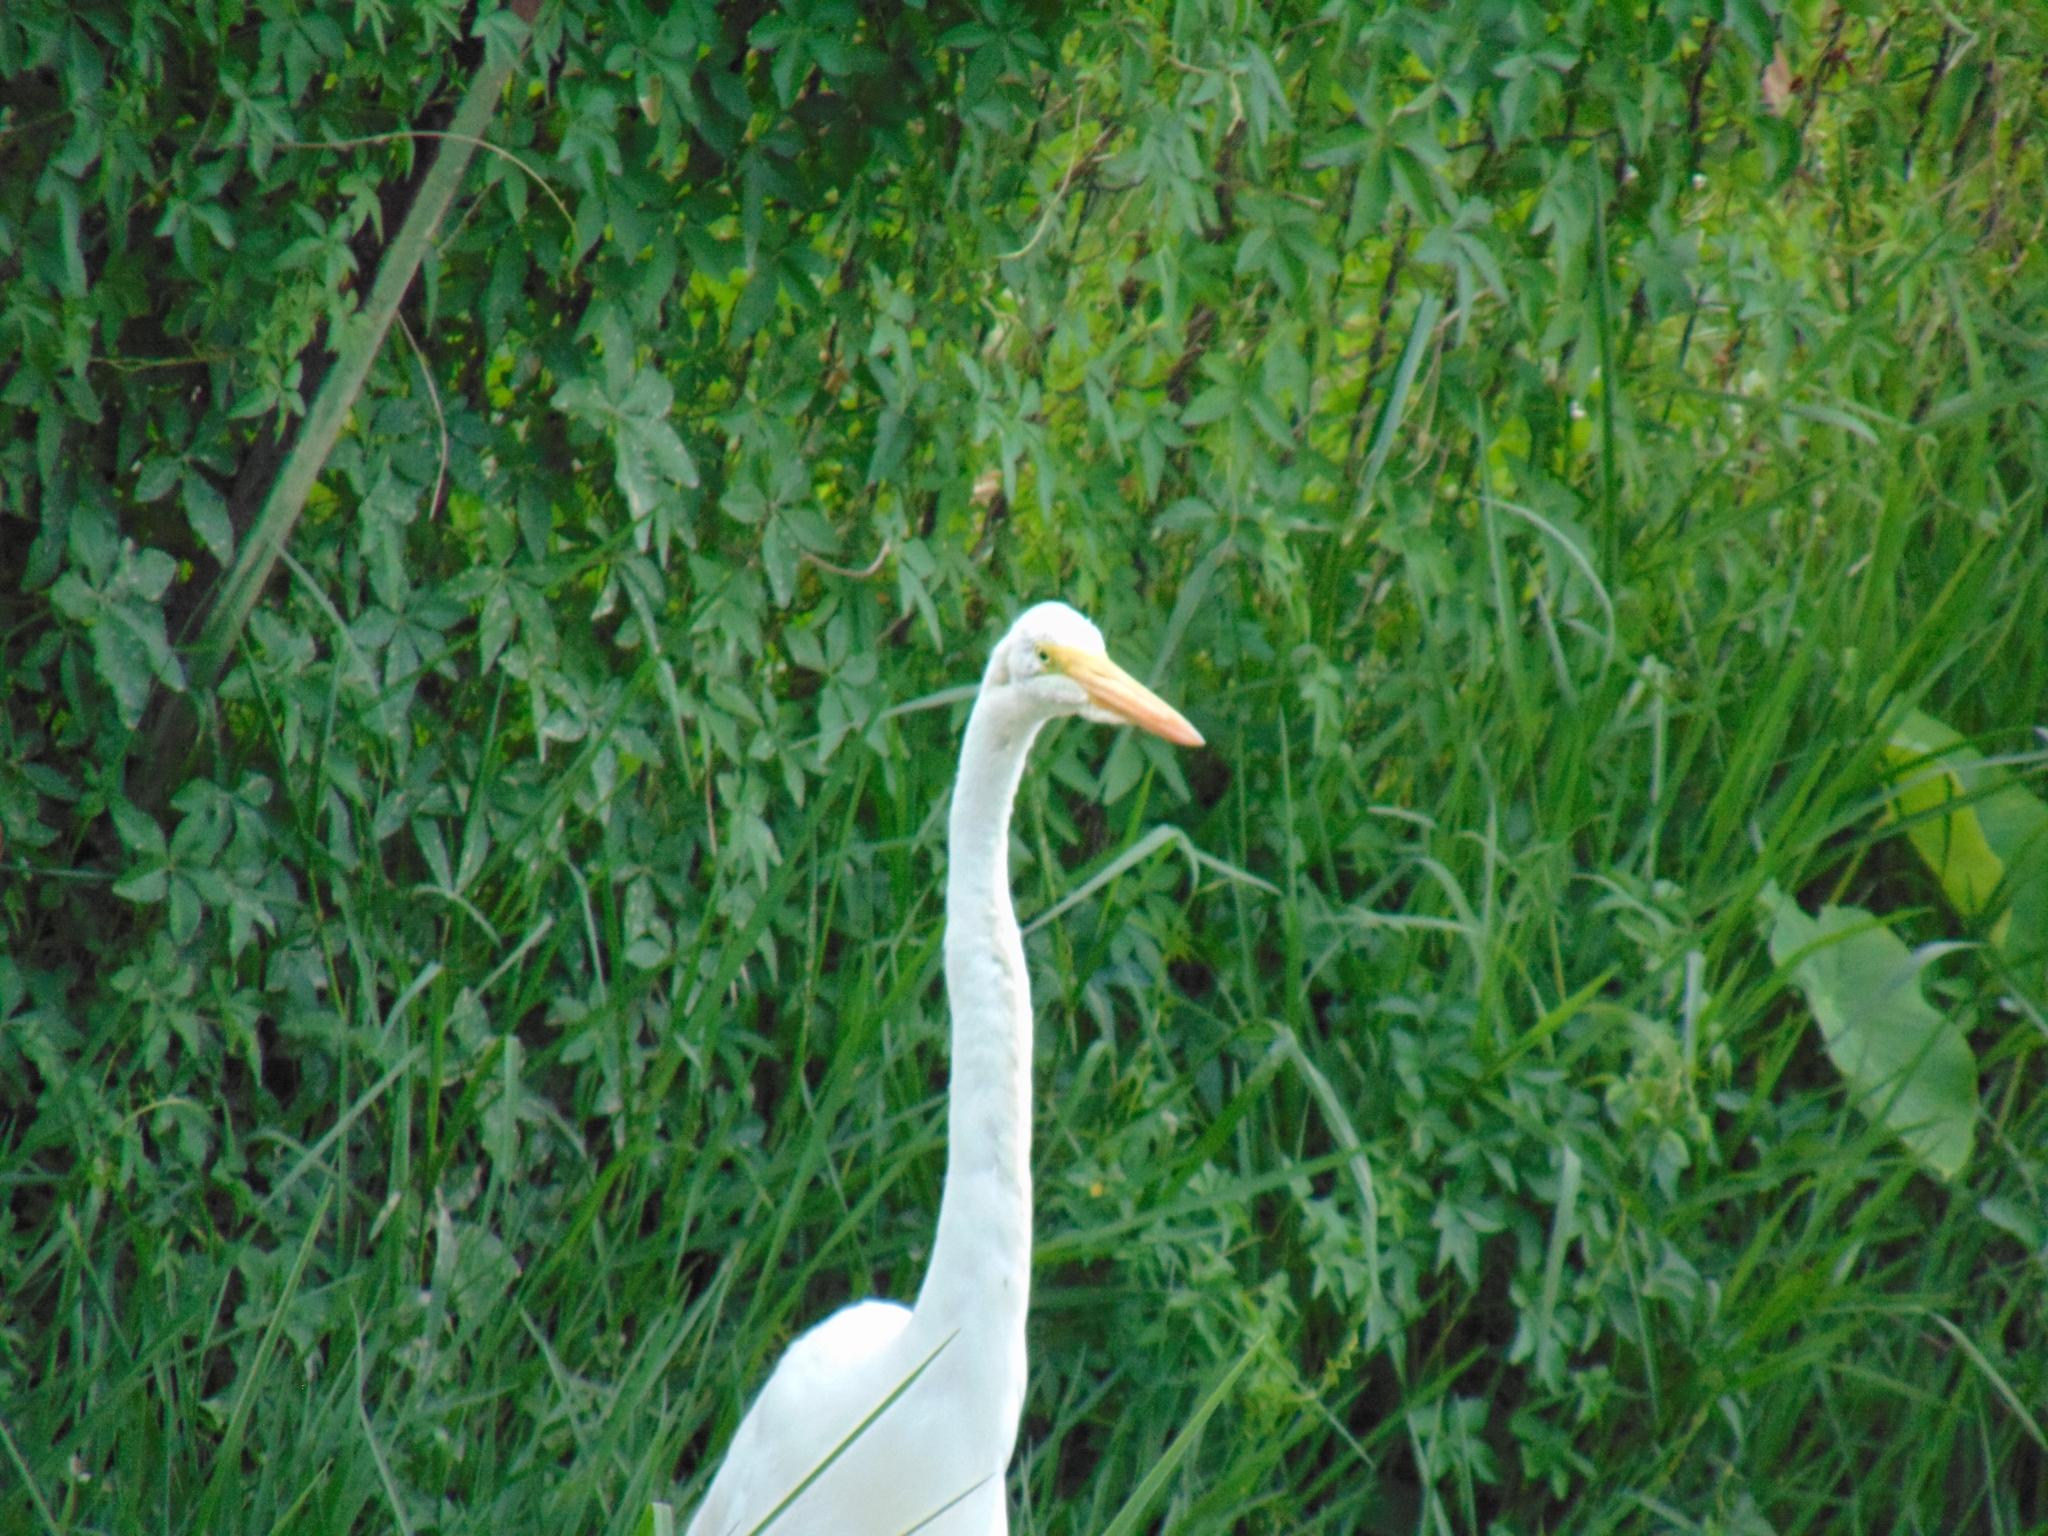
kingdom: Animalia
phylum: Chordata
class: Aves
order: Pelecaniformes
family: Ardeidae
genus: Ardea
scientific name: Ardea alba
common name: Great egret
